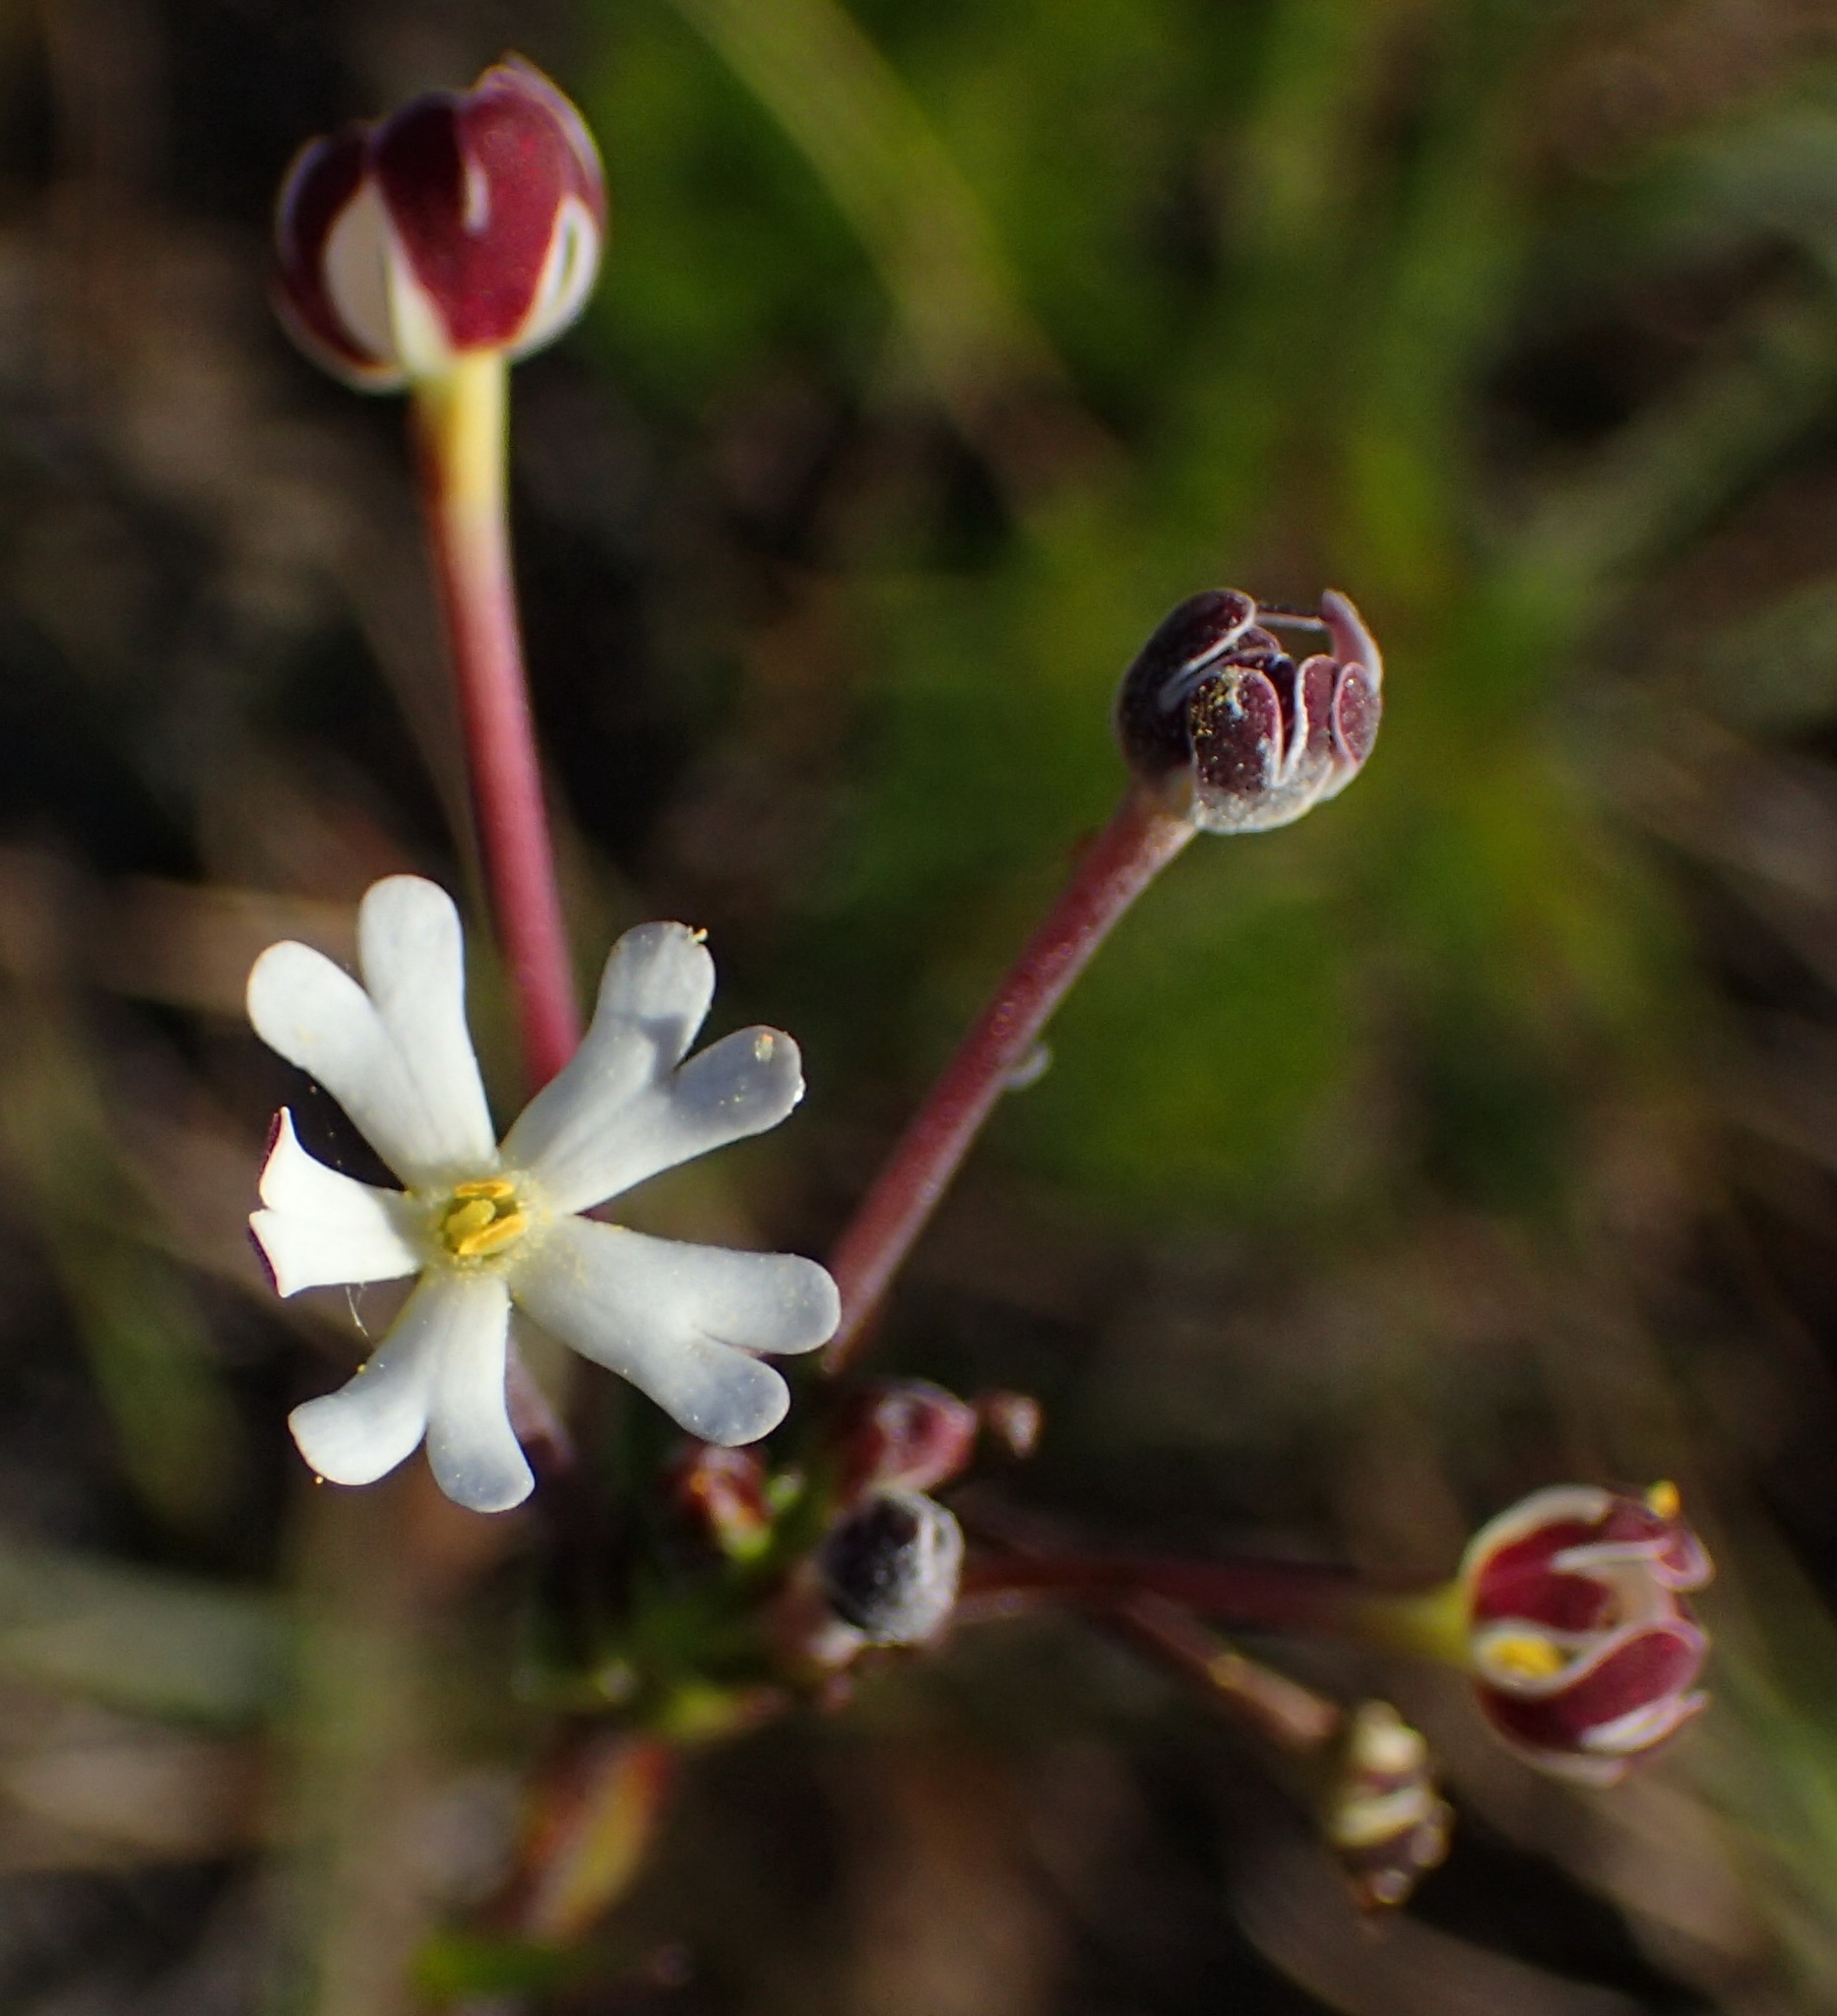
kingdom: Plantae
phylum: Tracheophyta
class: Magnoliopsida
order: Lamiales
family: Scrophulariaceae
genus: Zaluzianskya
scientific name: Zaluzianskya capensis
